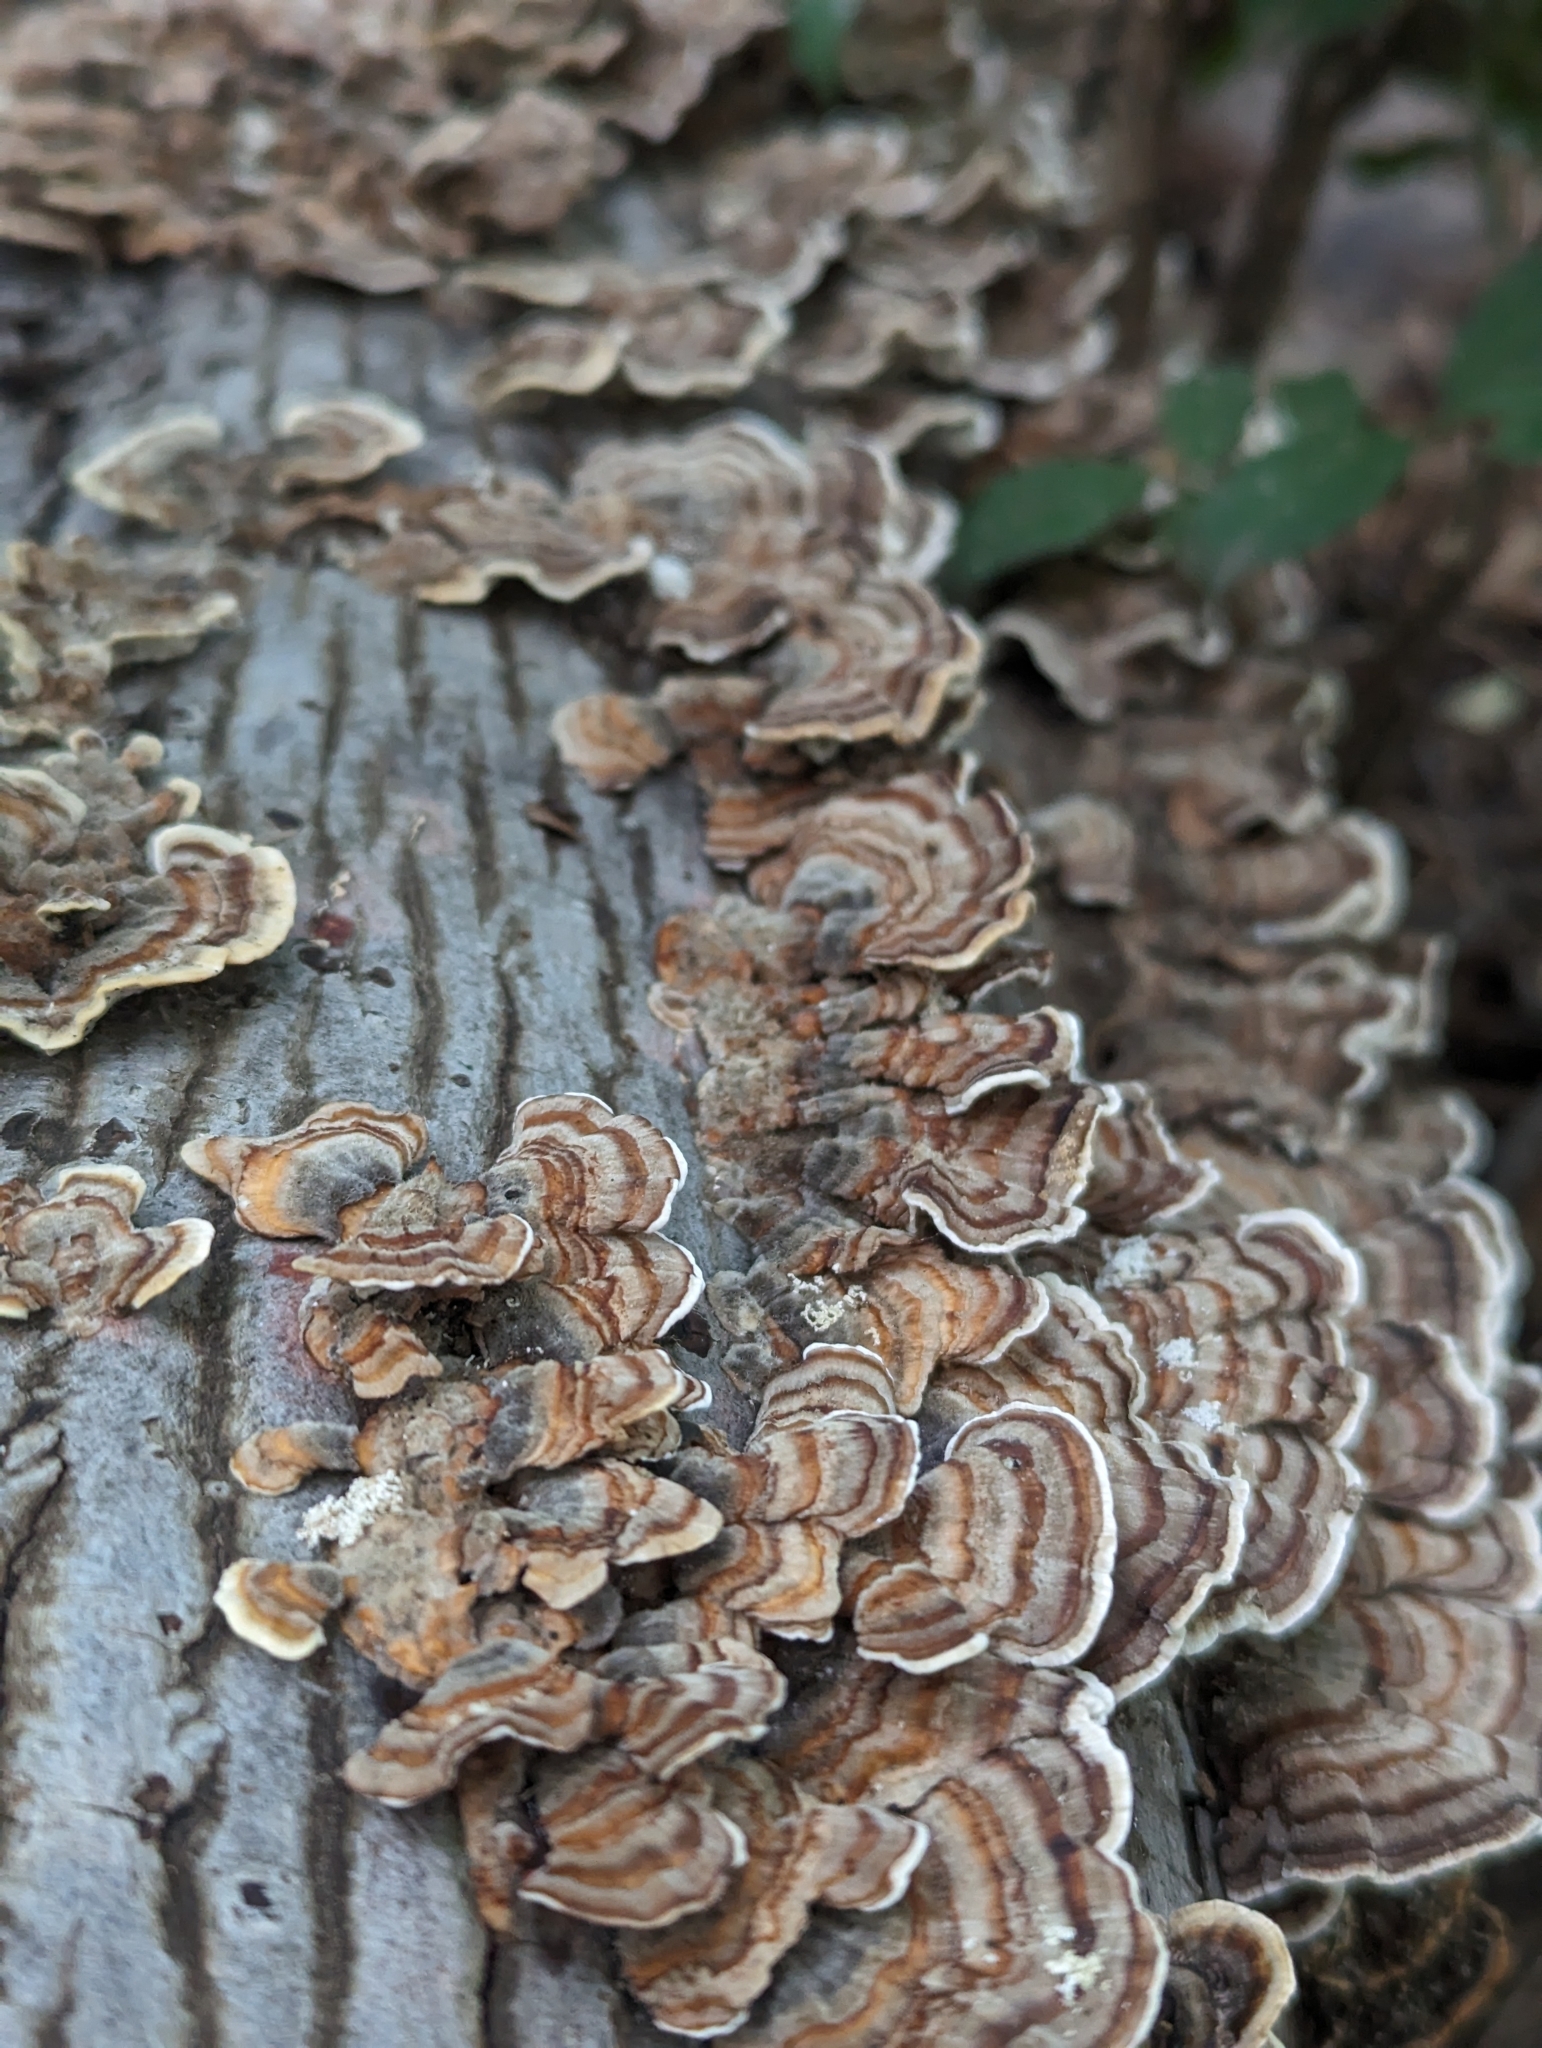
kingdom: Fungi
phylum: Basidiomycota
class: Agaricomycetes
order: Polyporales
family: Polyporaceae
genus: Trametes
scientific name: Trametes versicolor
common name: Turkeytail
